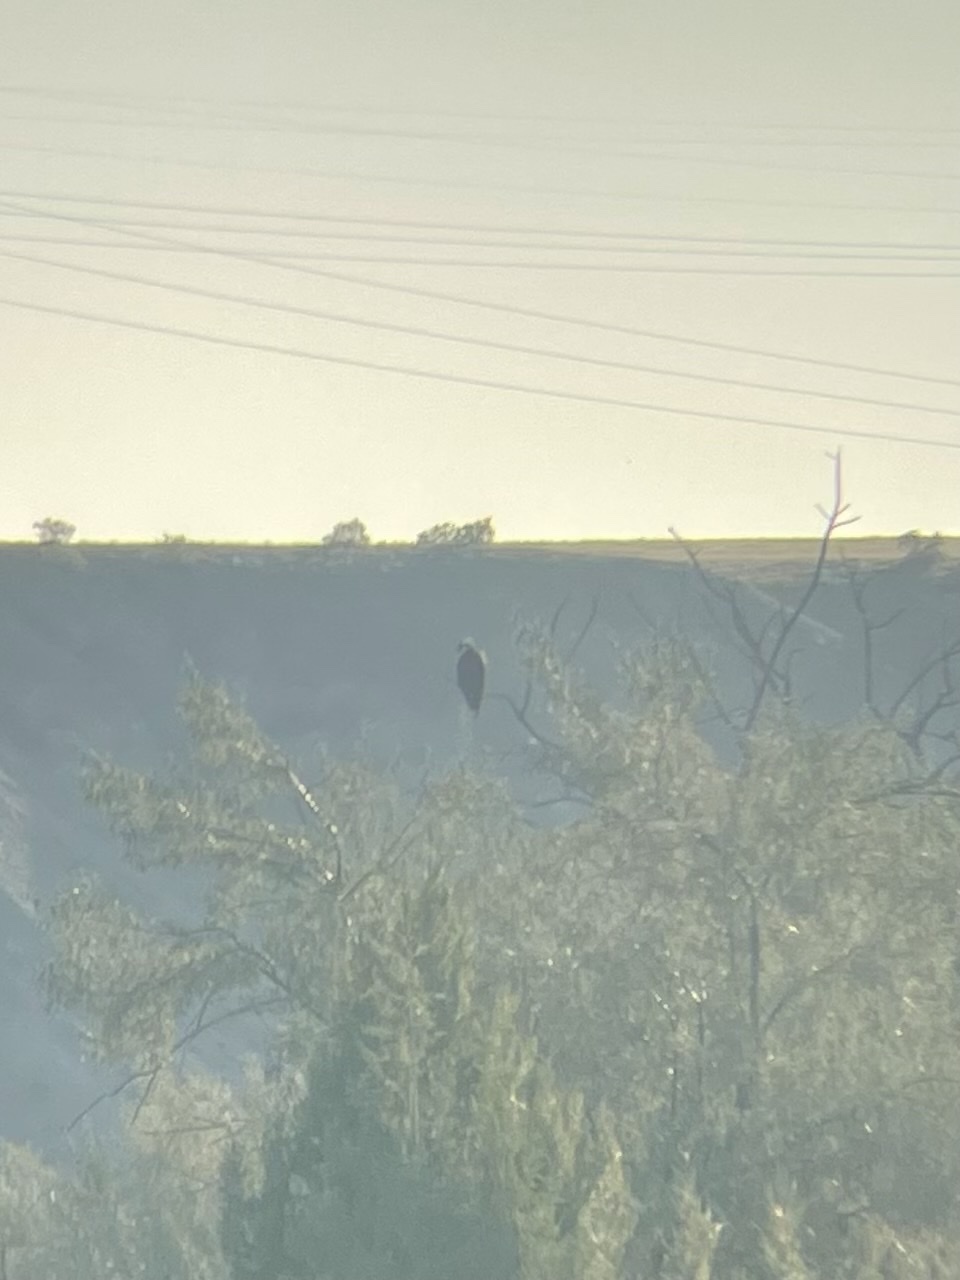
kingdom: Animalia
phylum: Chordata
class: Aves
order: Accipitriformes
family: Pandionidae
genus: Pandion
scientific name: Pandion haliaetus
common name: Osprey
